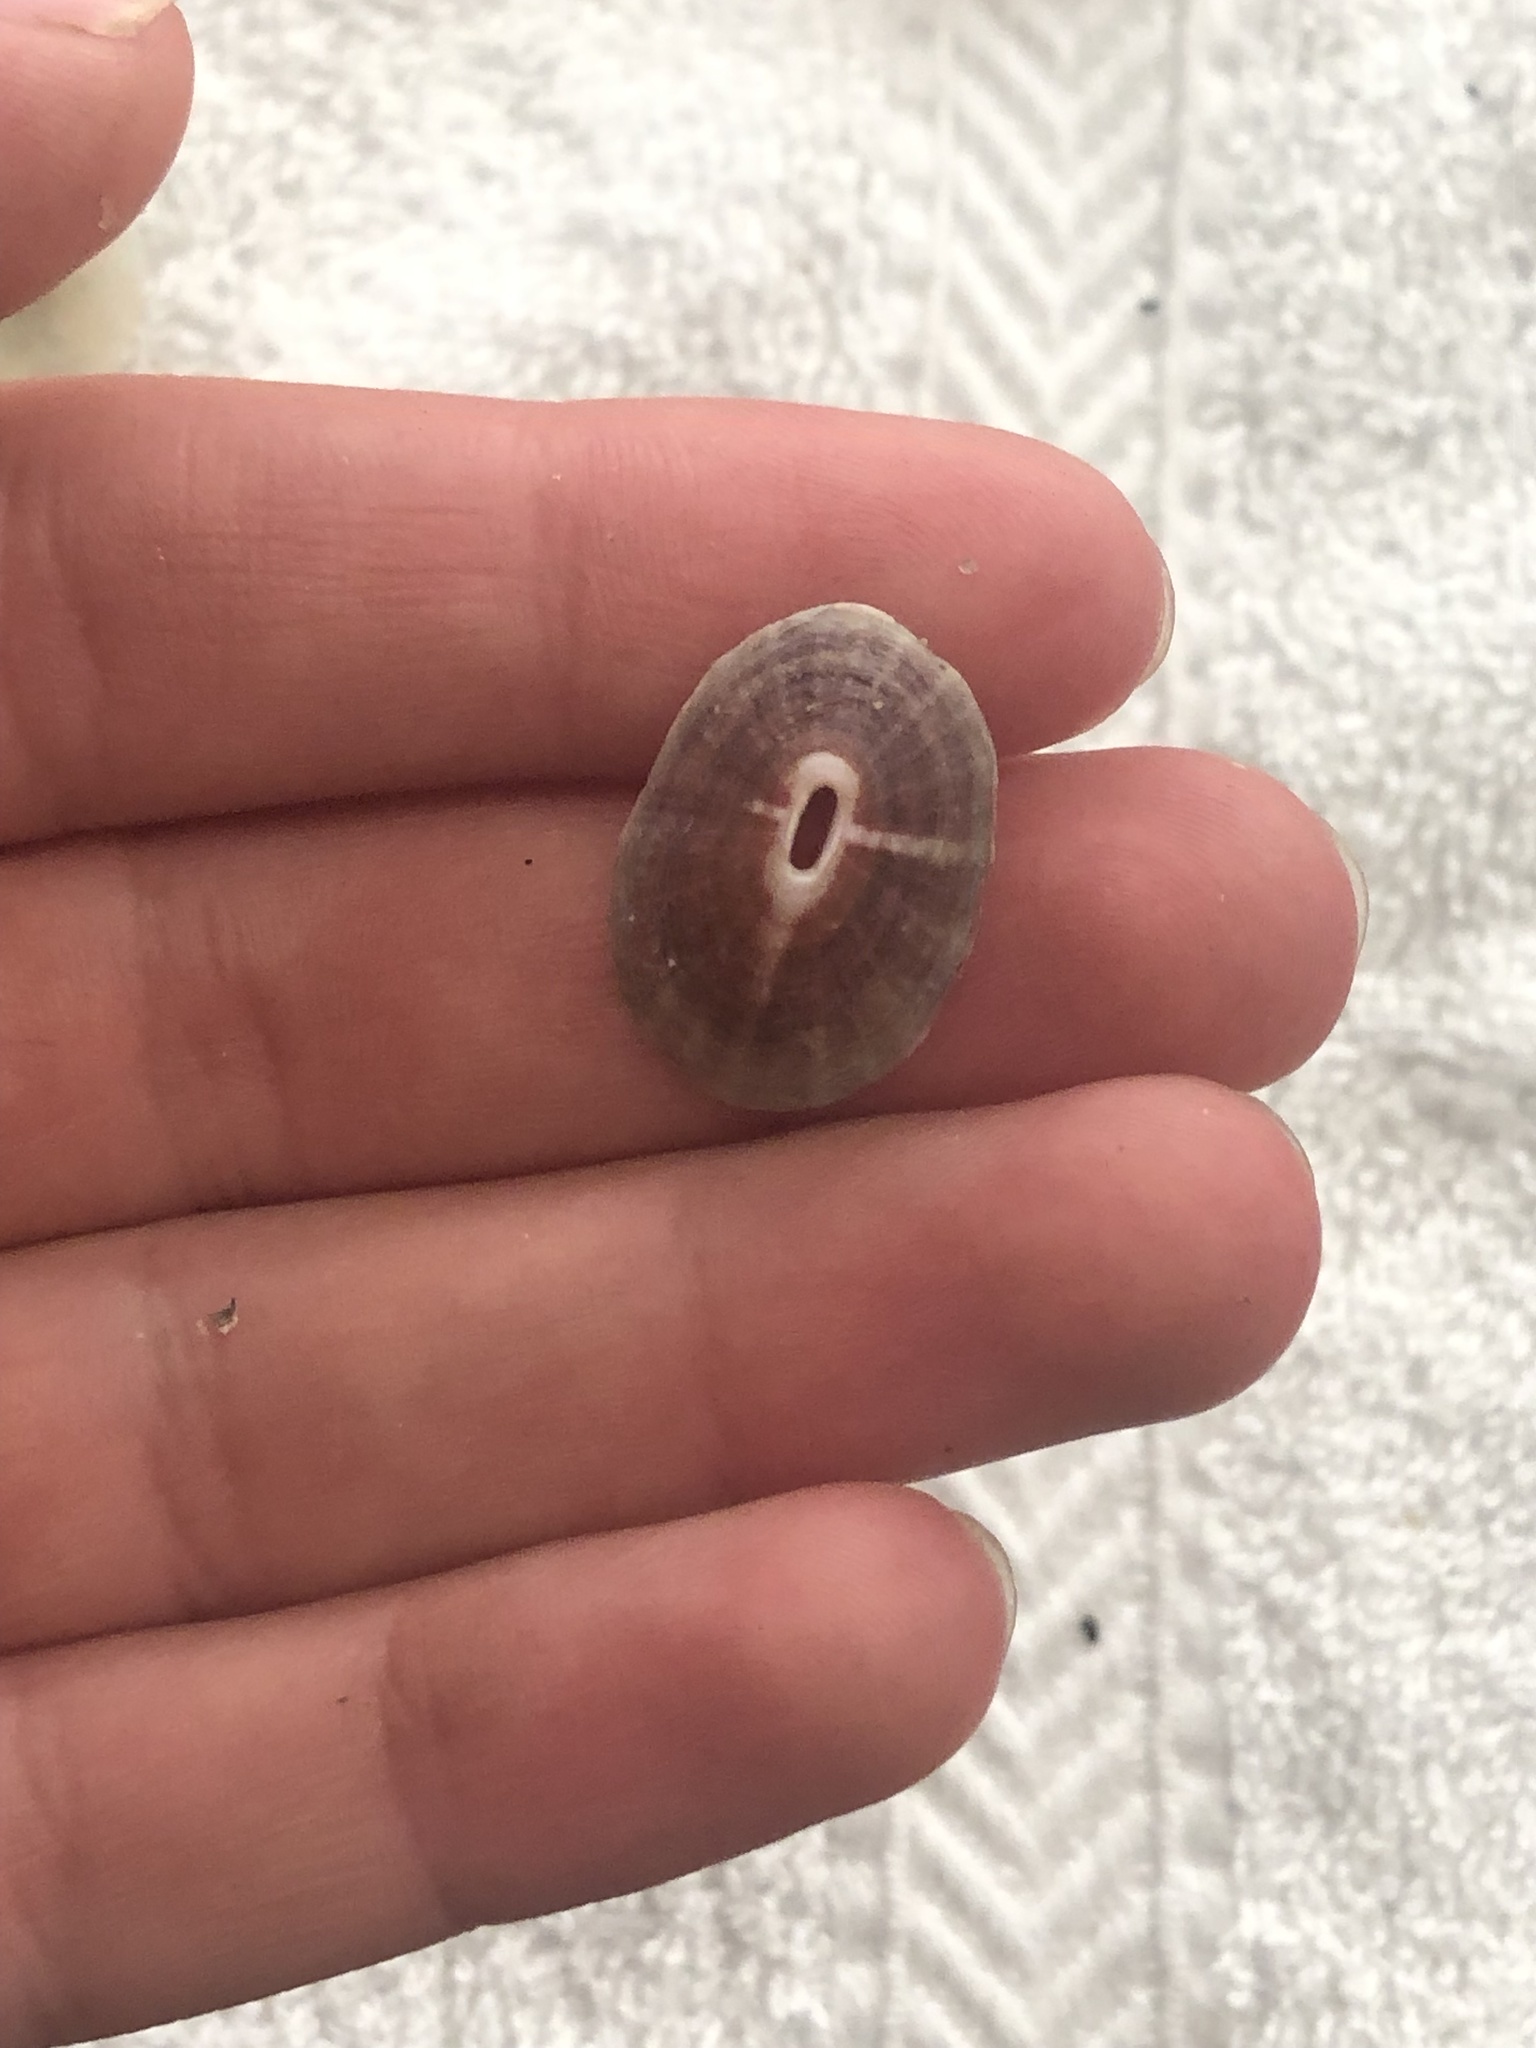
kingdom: Animalia
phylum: Mollusca
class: Gastropoda
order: Lepetellida
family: Fissurellidae
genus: Fissurella
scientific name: Fissurella volcano
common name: Volcano keyhole limpet
